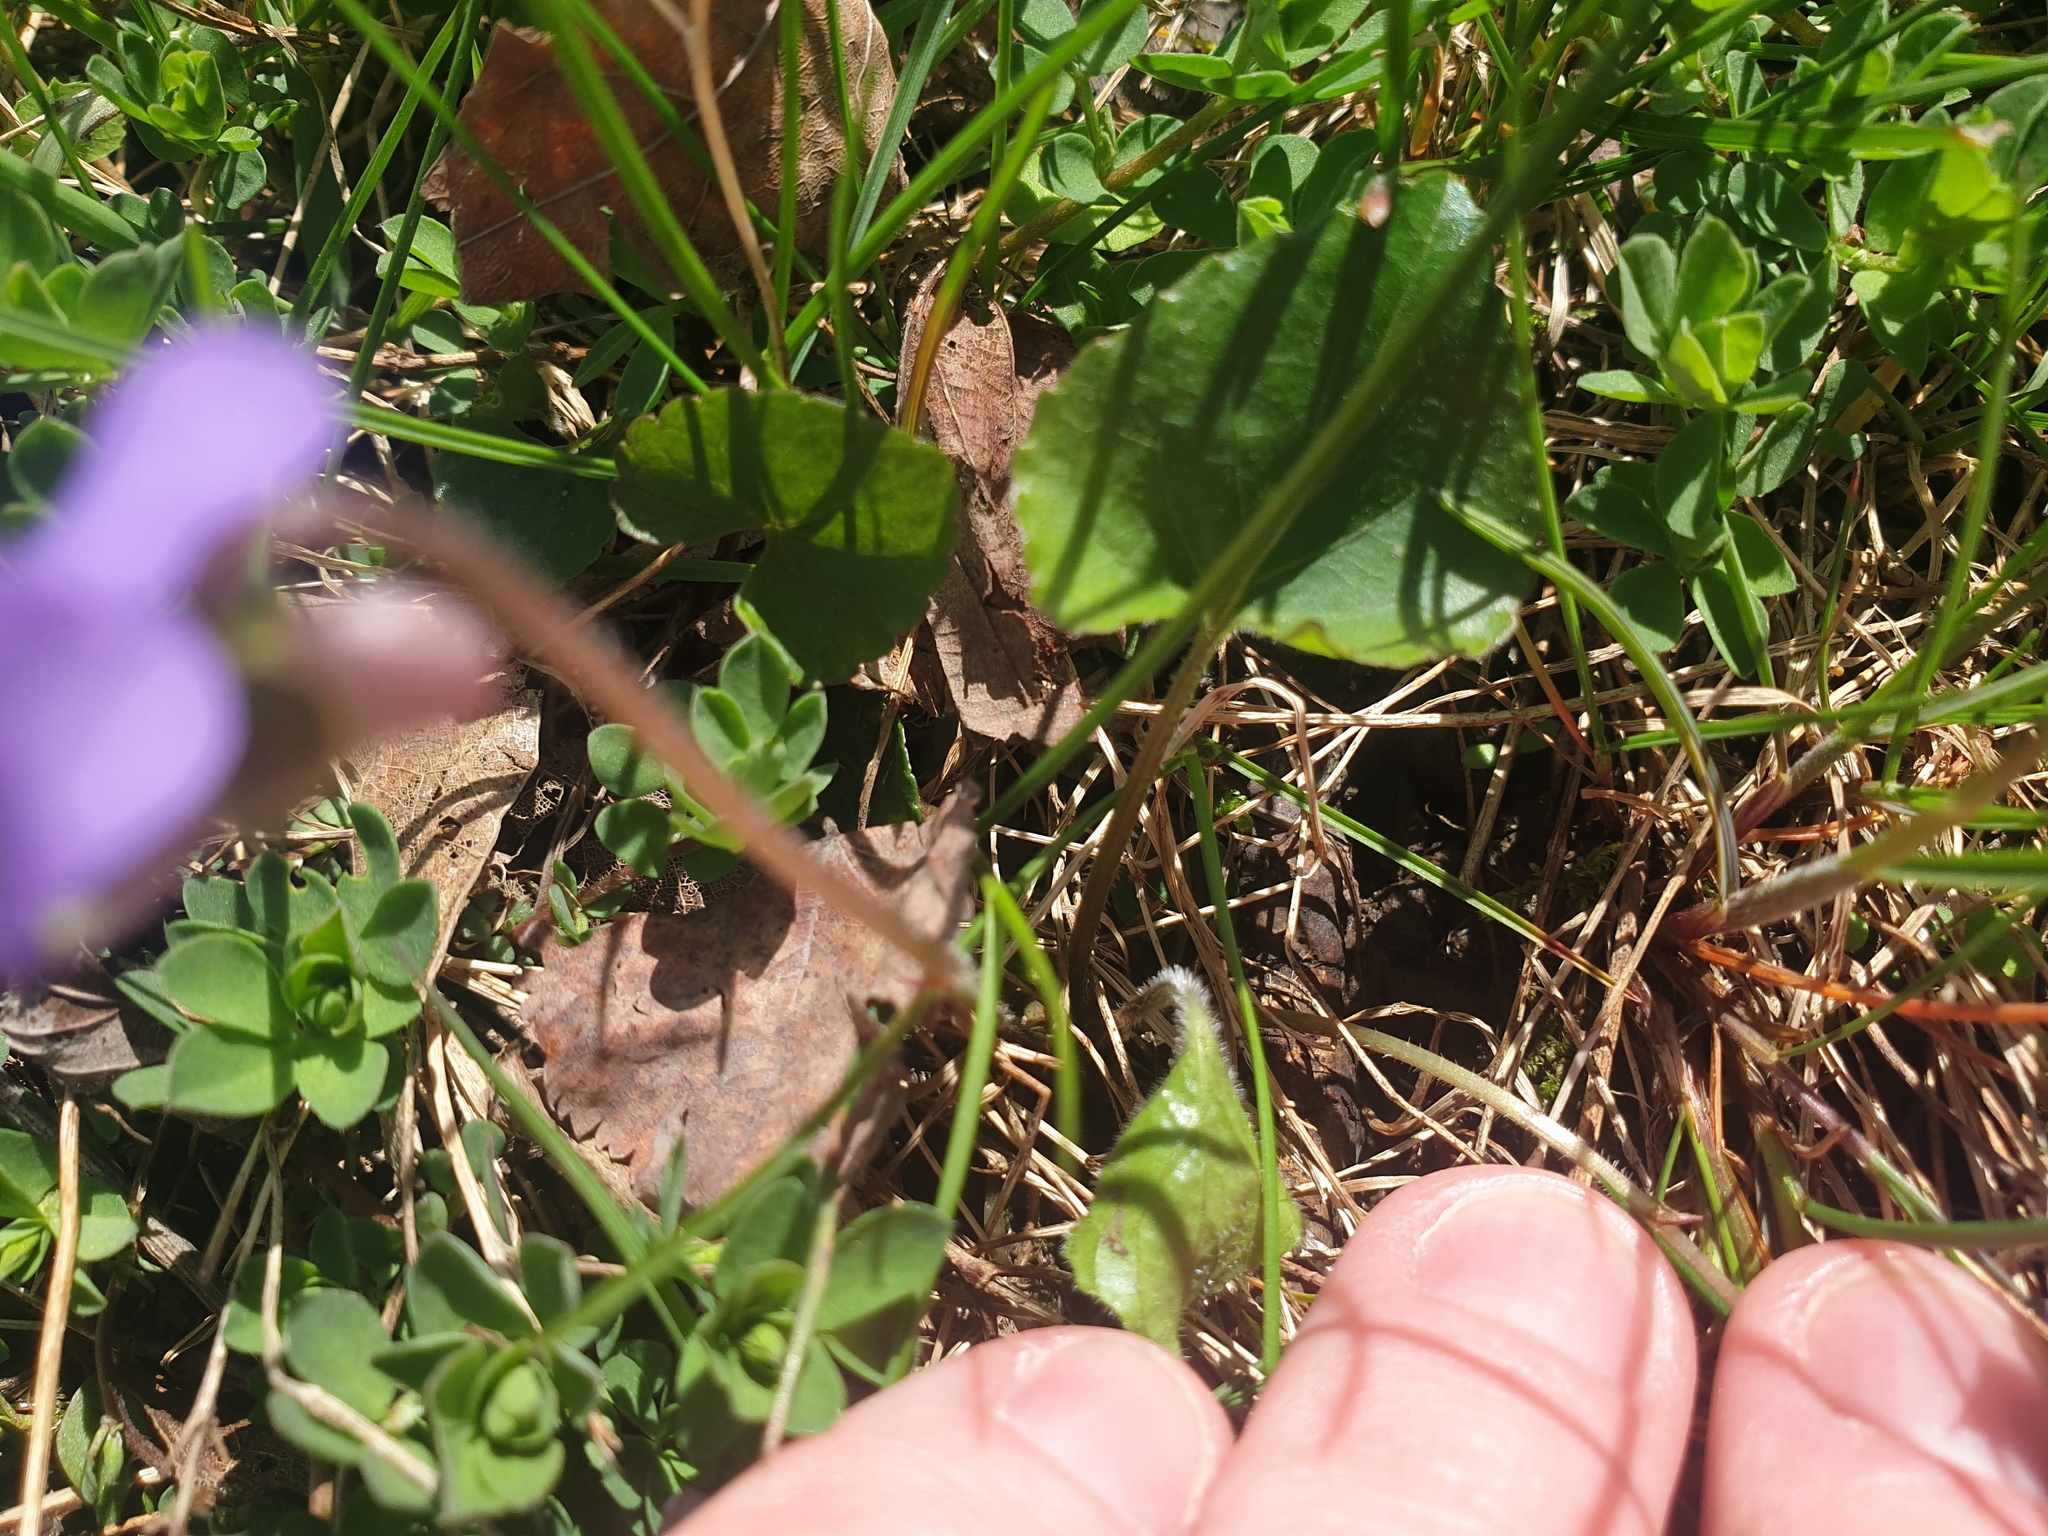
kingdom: Plantae
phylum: Tracheophyta
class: Magnoliopsida
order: Malpighiales
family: Violaceae
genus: Viola
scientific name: Viola septentrionalis
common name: Northern woodland violet
